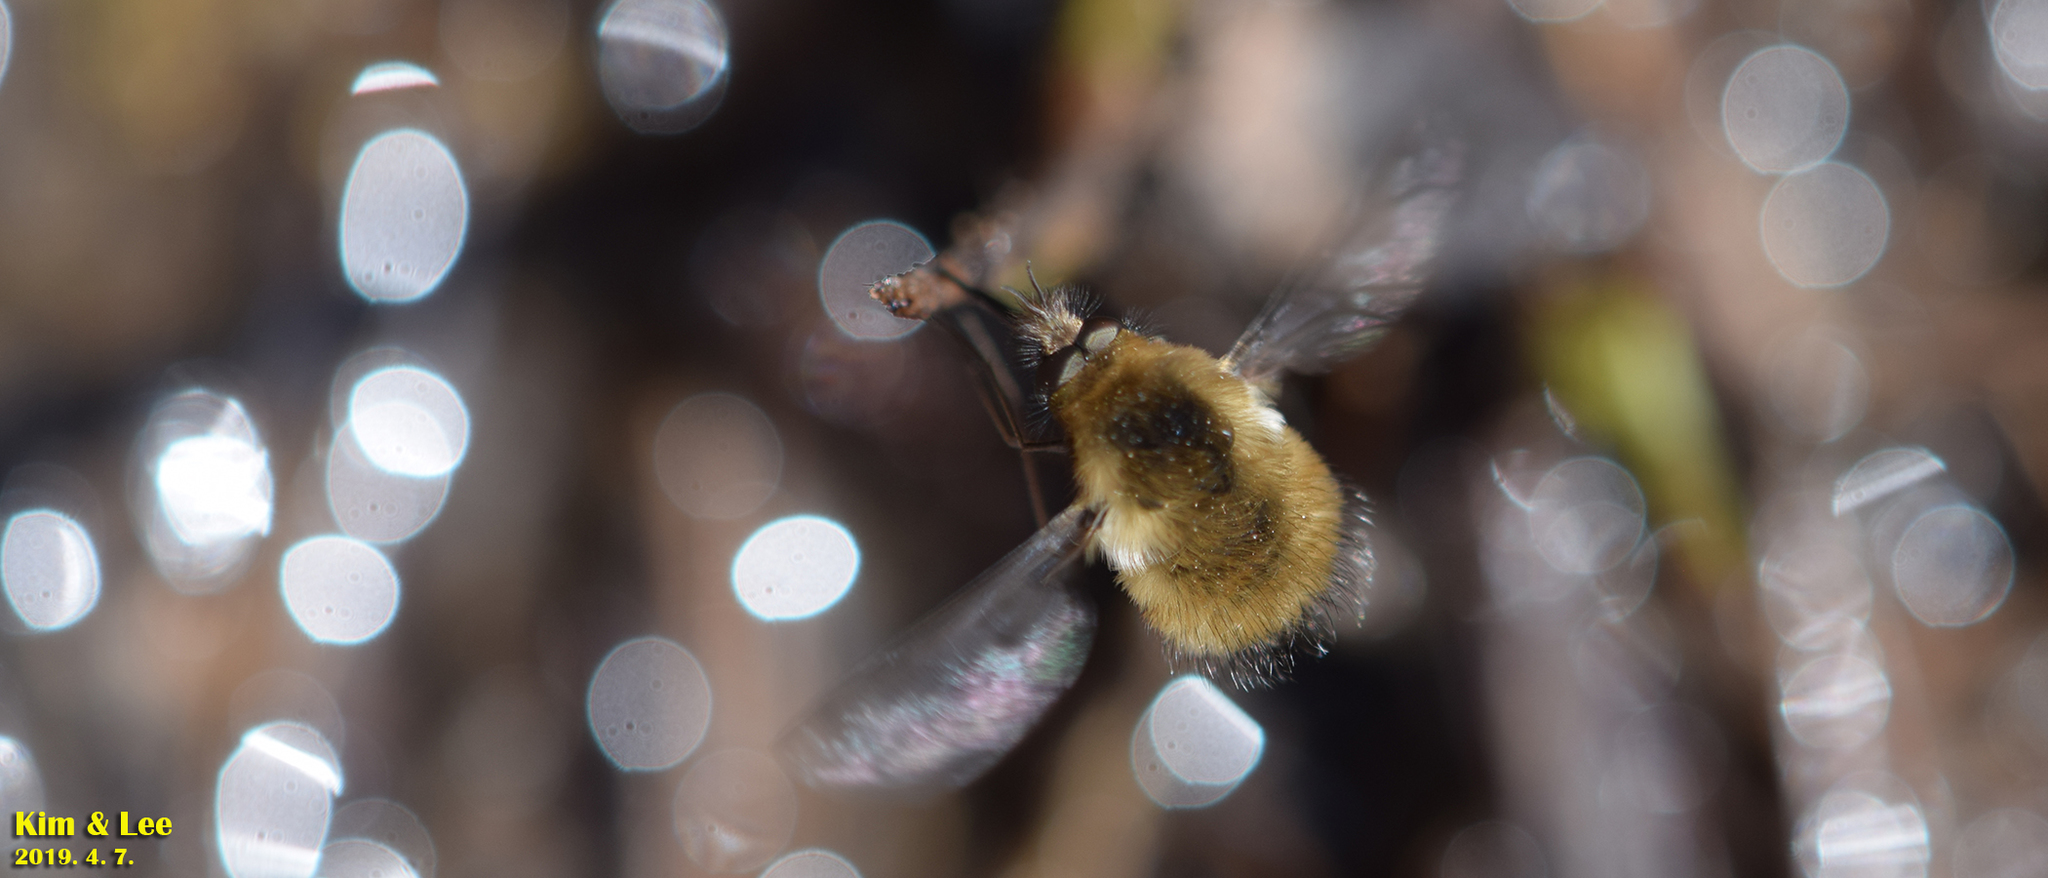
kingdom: Animalia
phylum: Arthropoda
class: Insecta
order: Diptera
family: Bombyliidae
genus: Bombylius
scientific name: Bombylius major
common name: Bee fly
